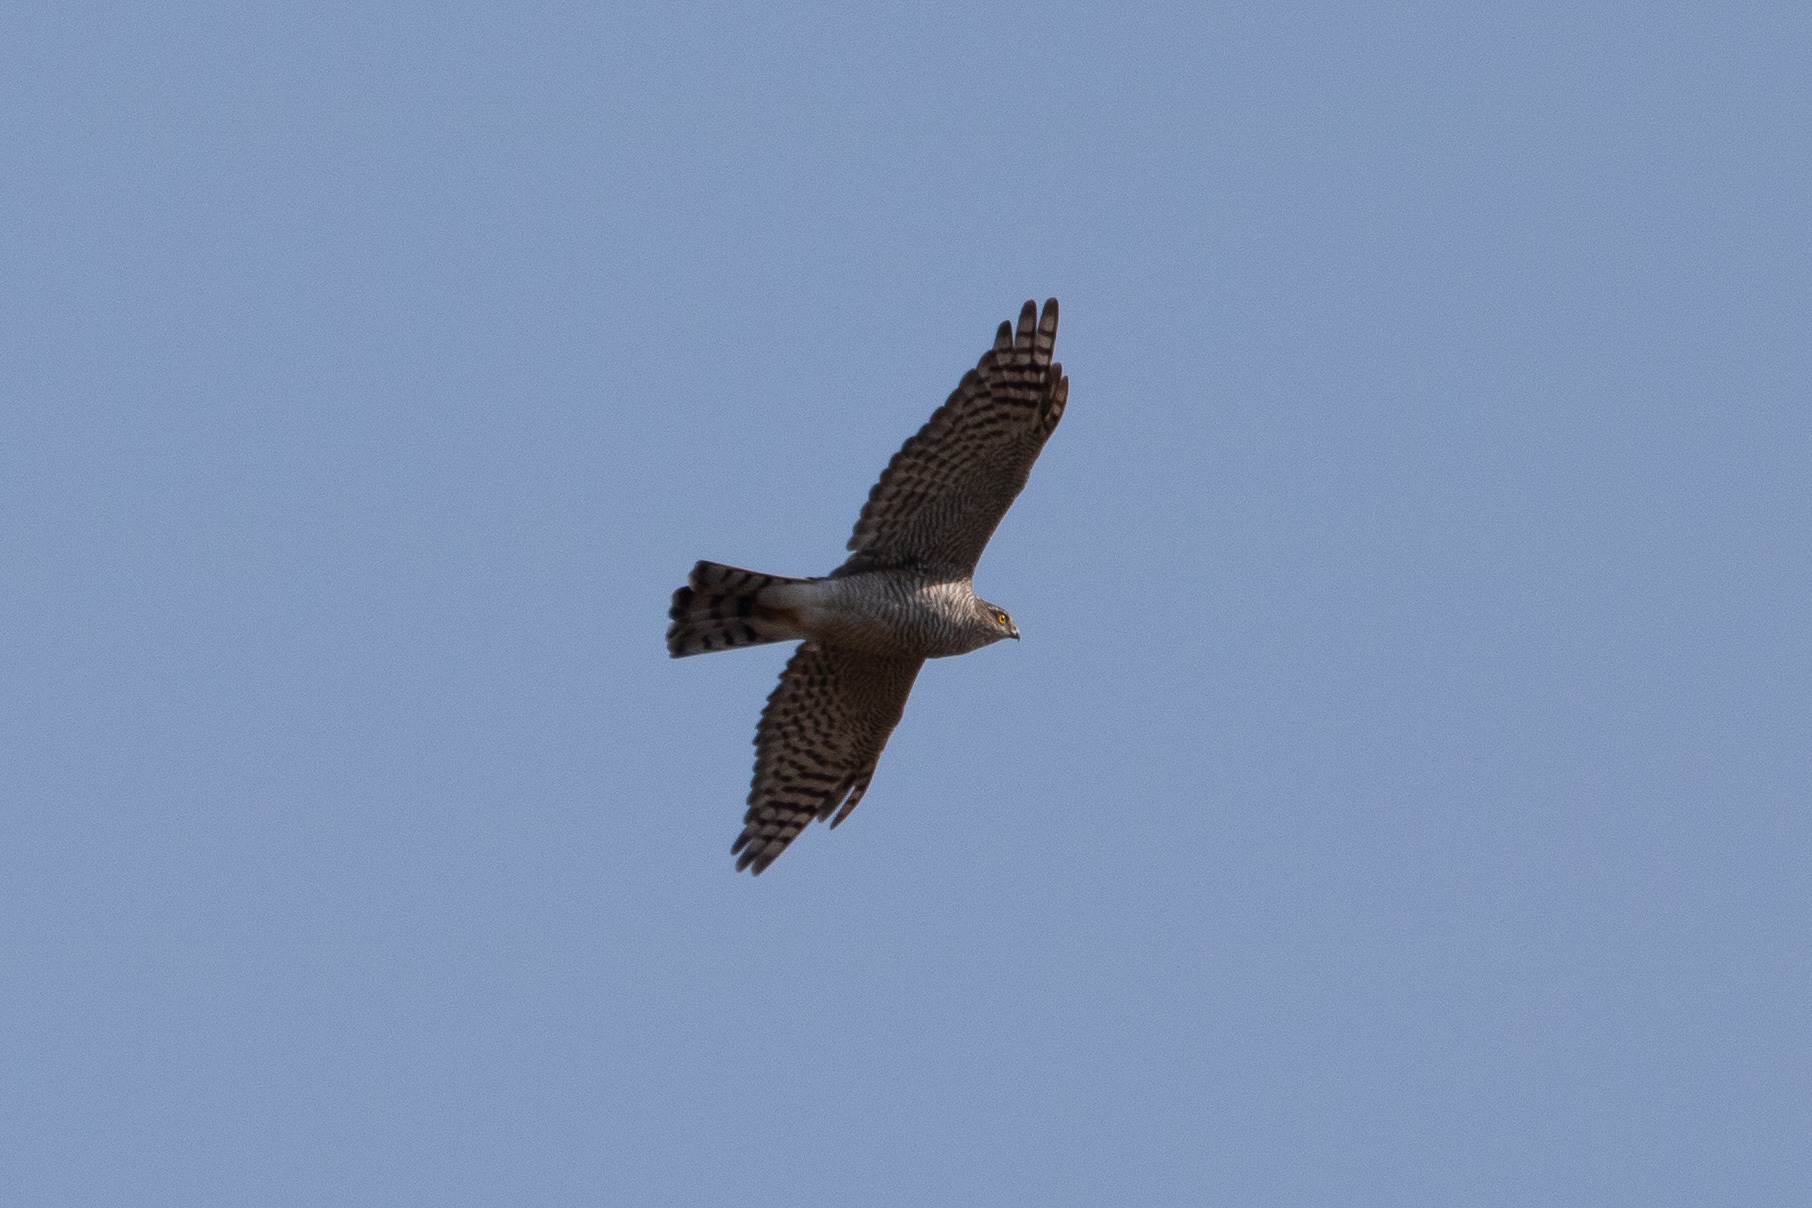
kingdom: Animalia
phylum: Chordata
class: Aves
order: Accipitriformes
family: Accipitridae
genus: Accipiter
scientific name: Accipiter nisus
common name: Eurasian sparrowhawk
